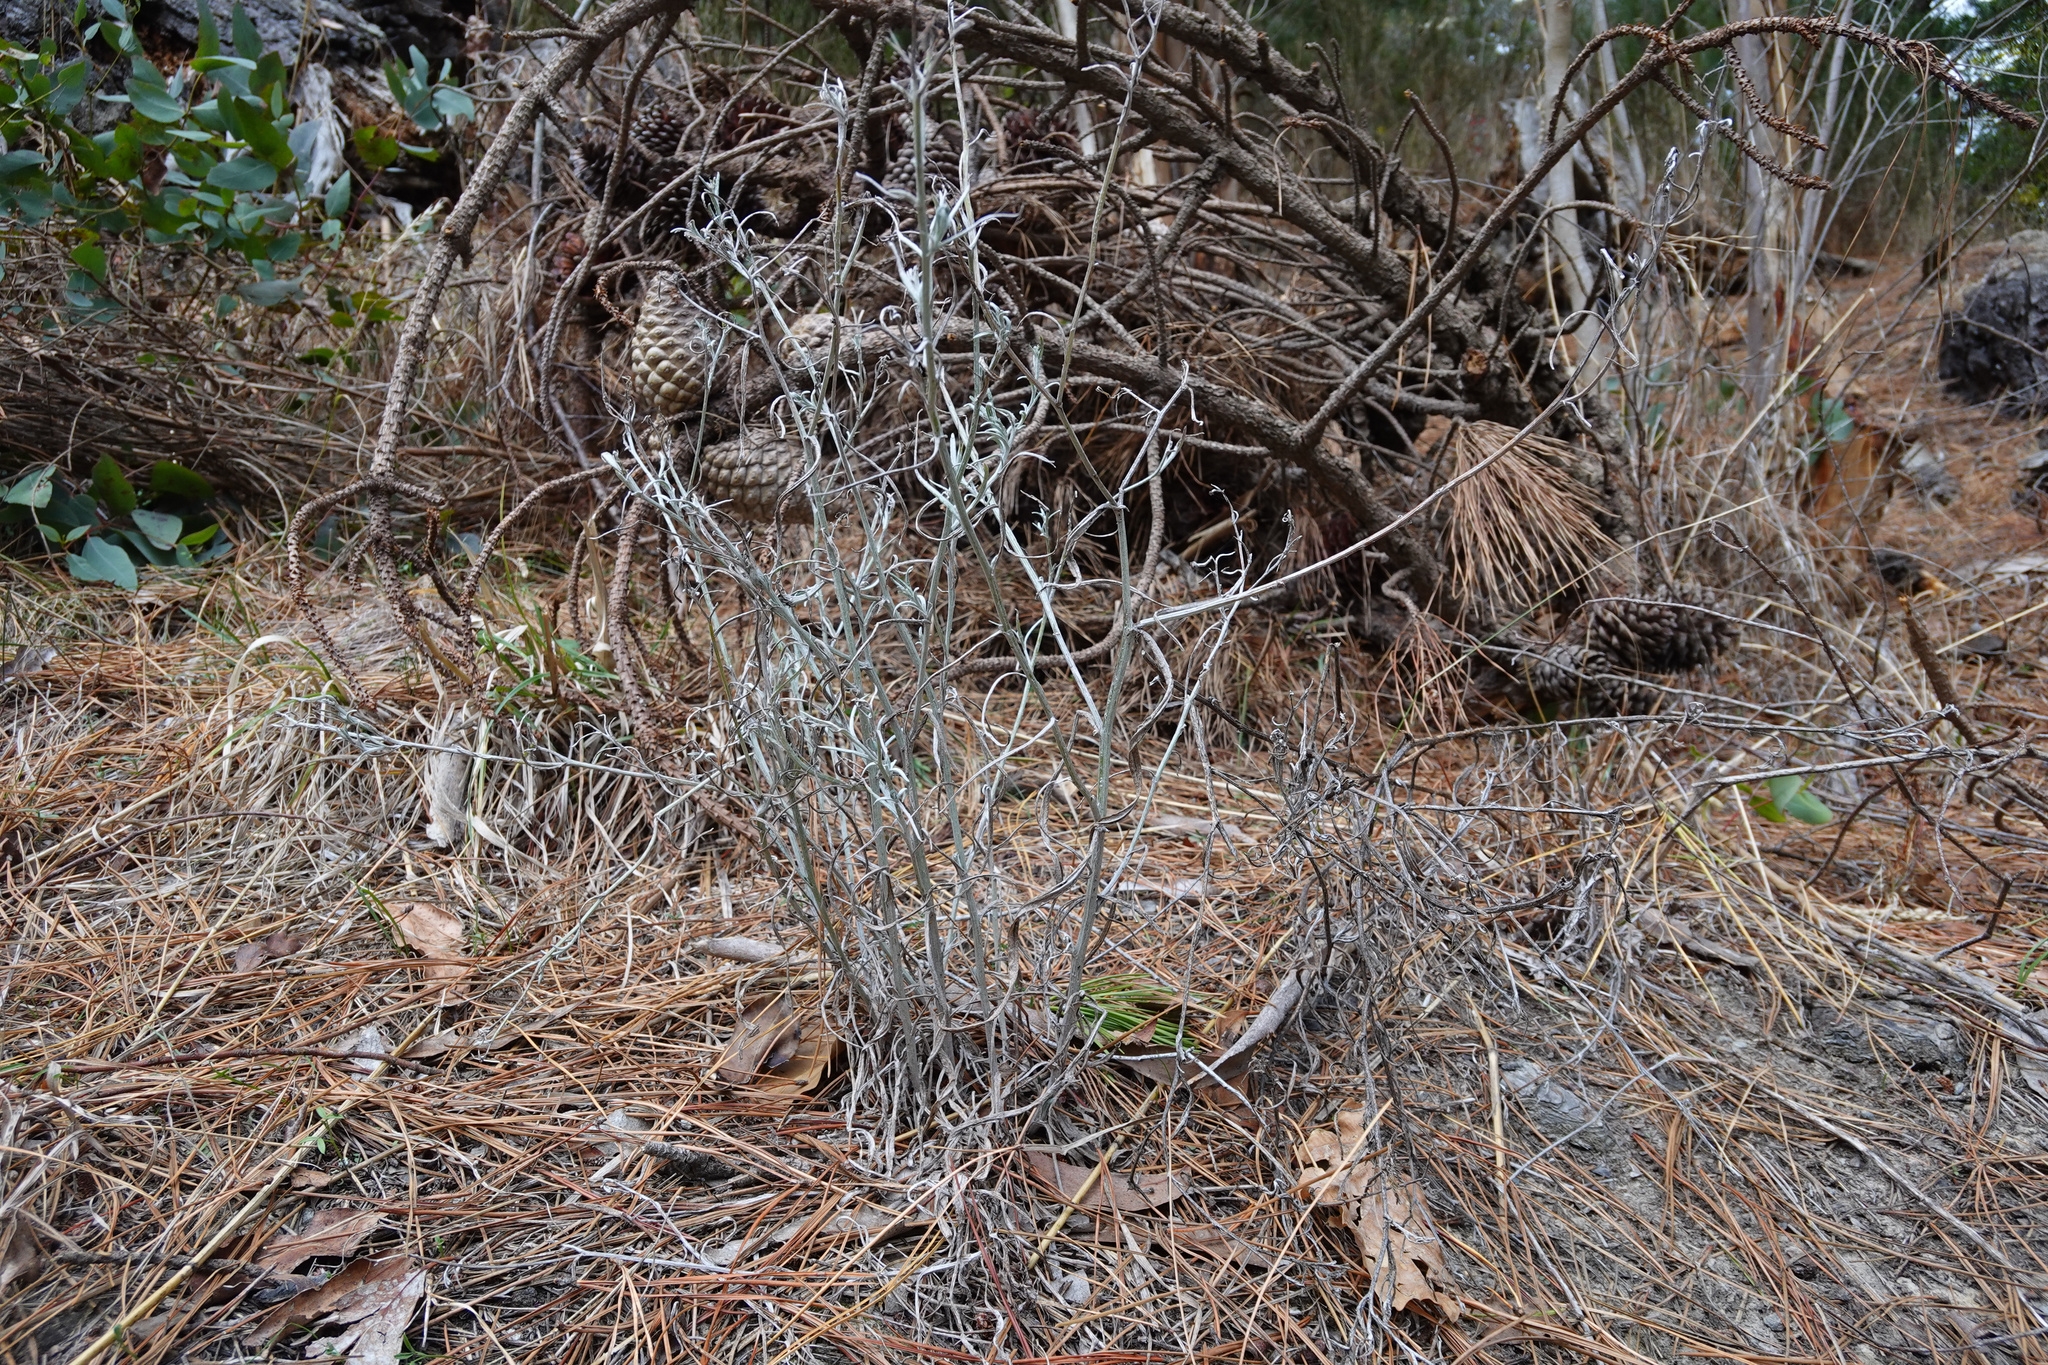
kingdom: Plantae
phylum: Tracheophyta
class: Magnoliopsida
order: Asterales
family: Asteraceae
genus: Senecio
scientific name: Senecio quadridentatus
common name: Cotton fireweed
